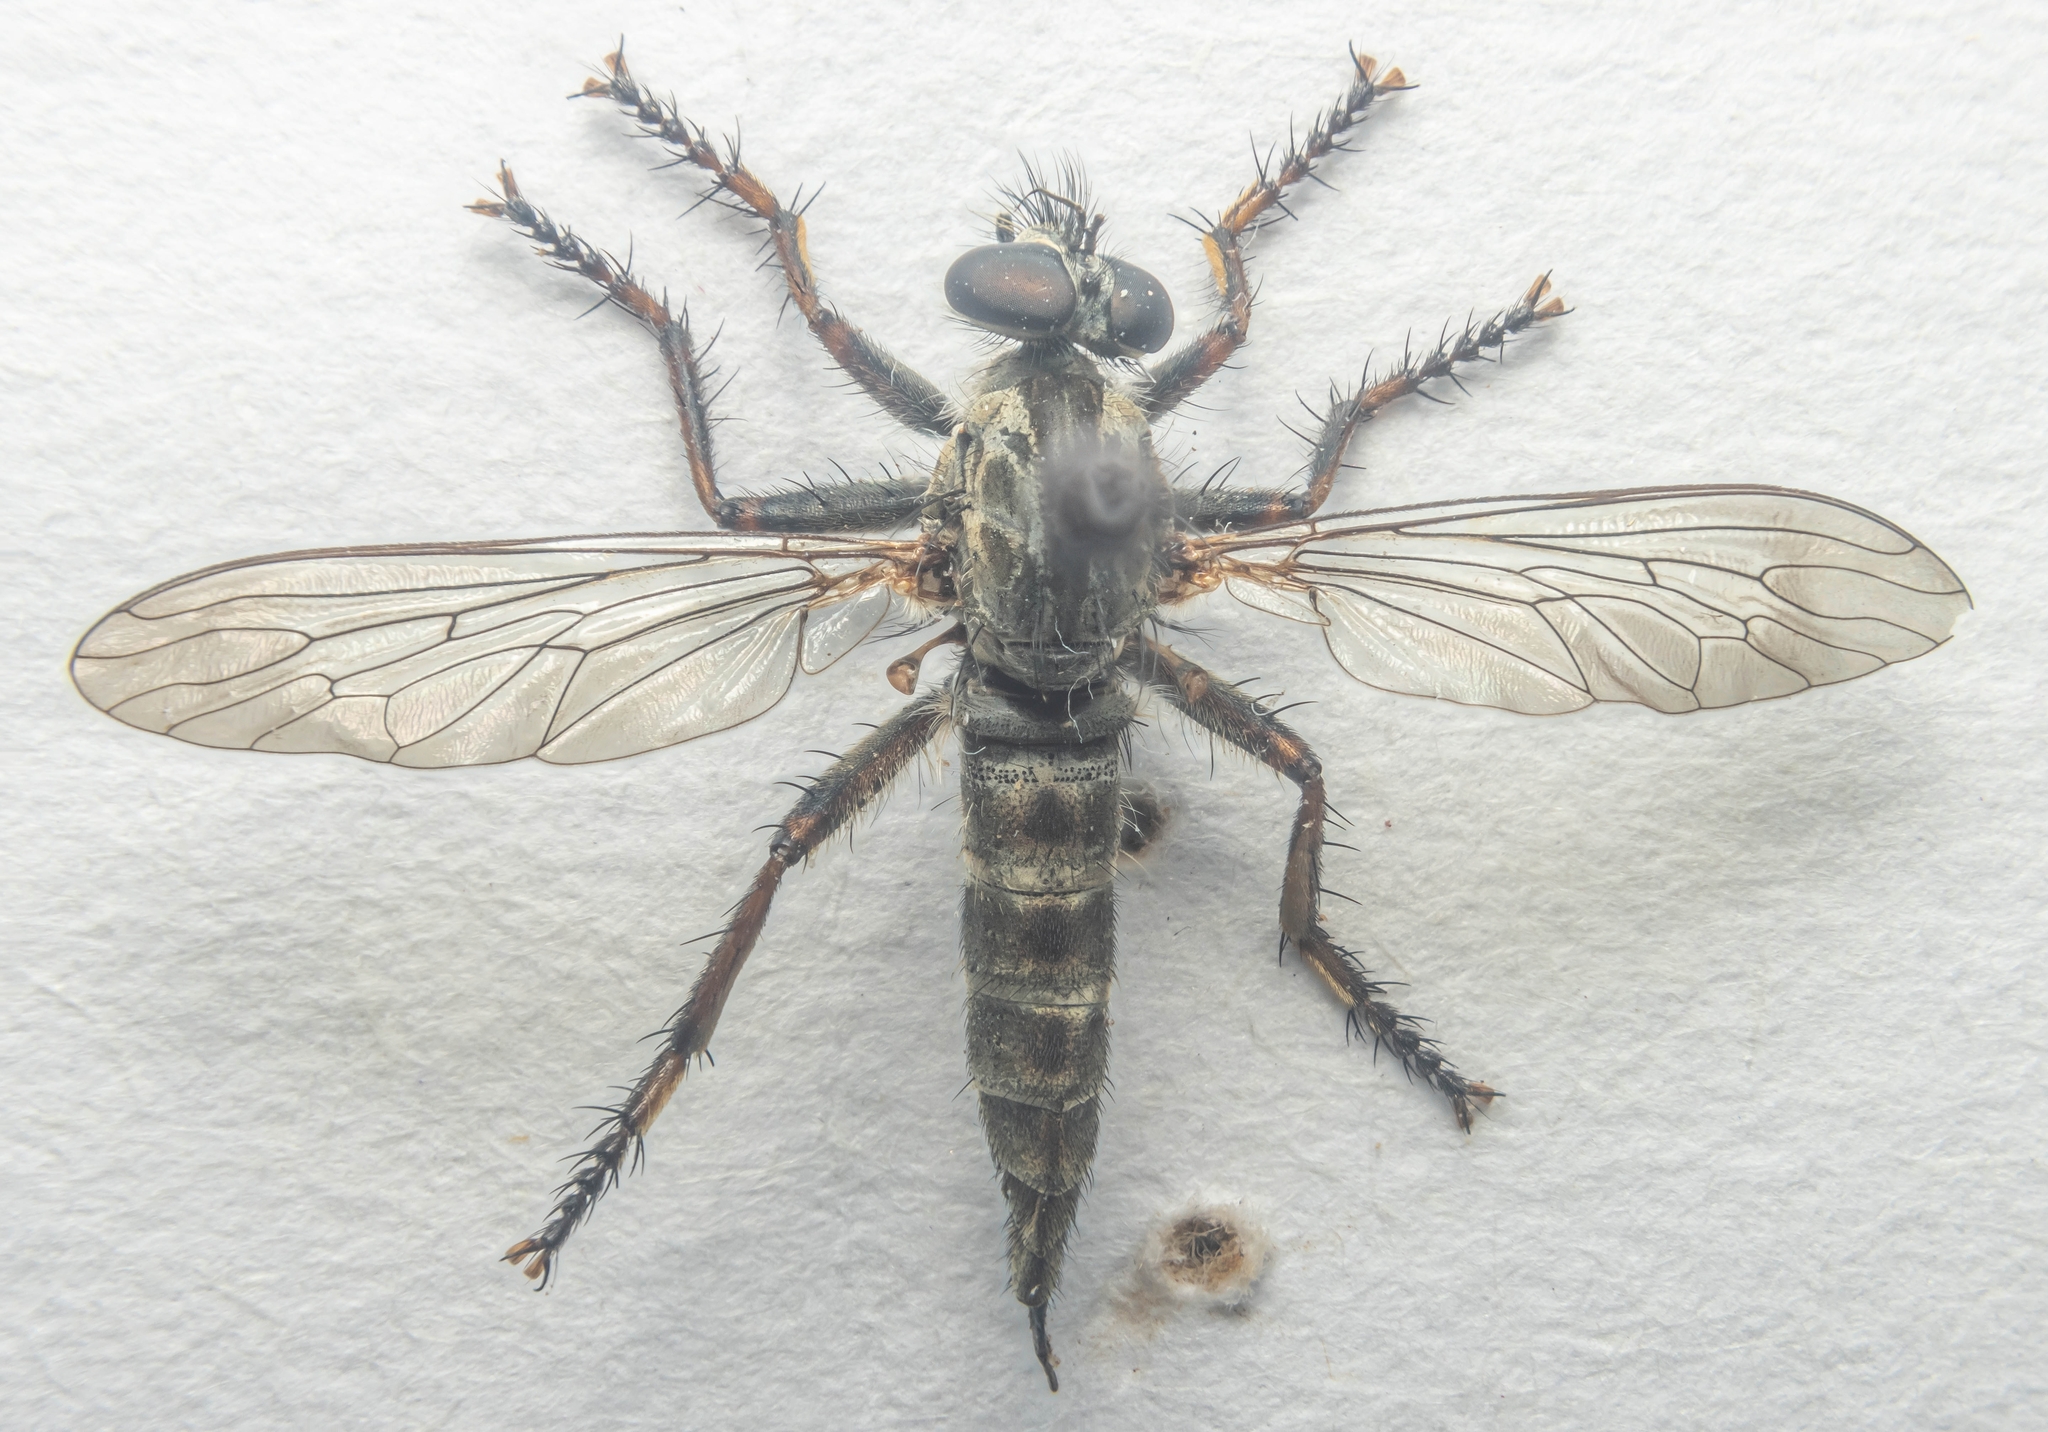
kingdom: Animalia
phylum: Arthropoda
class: Insecta
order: Diptera
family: Asilidae
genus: Machimus
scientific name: Machimus atricapillus
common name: Kite-tailed robberfly
